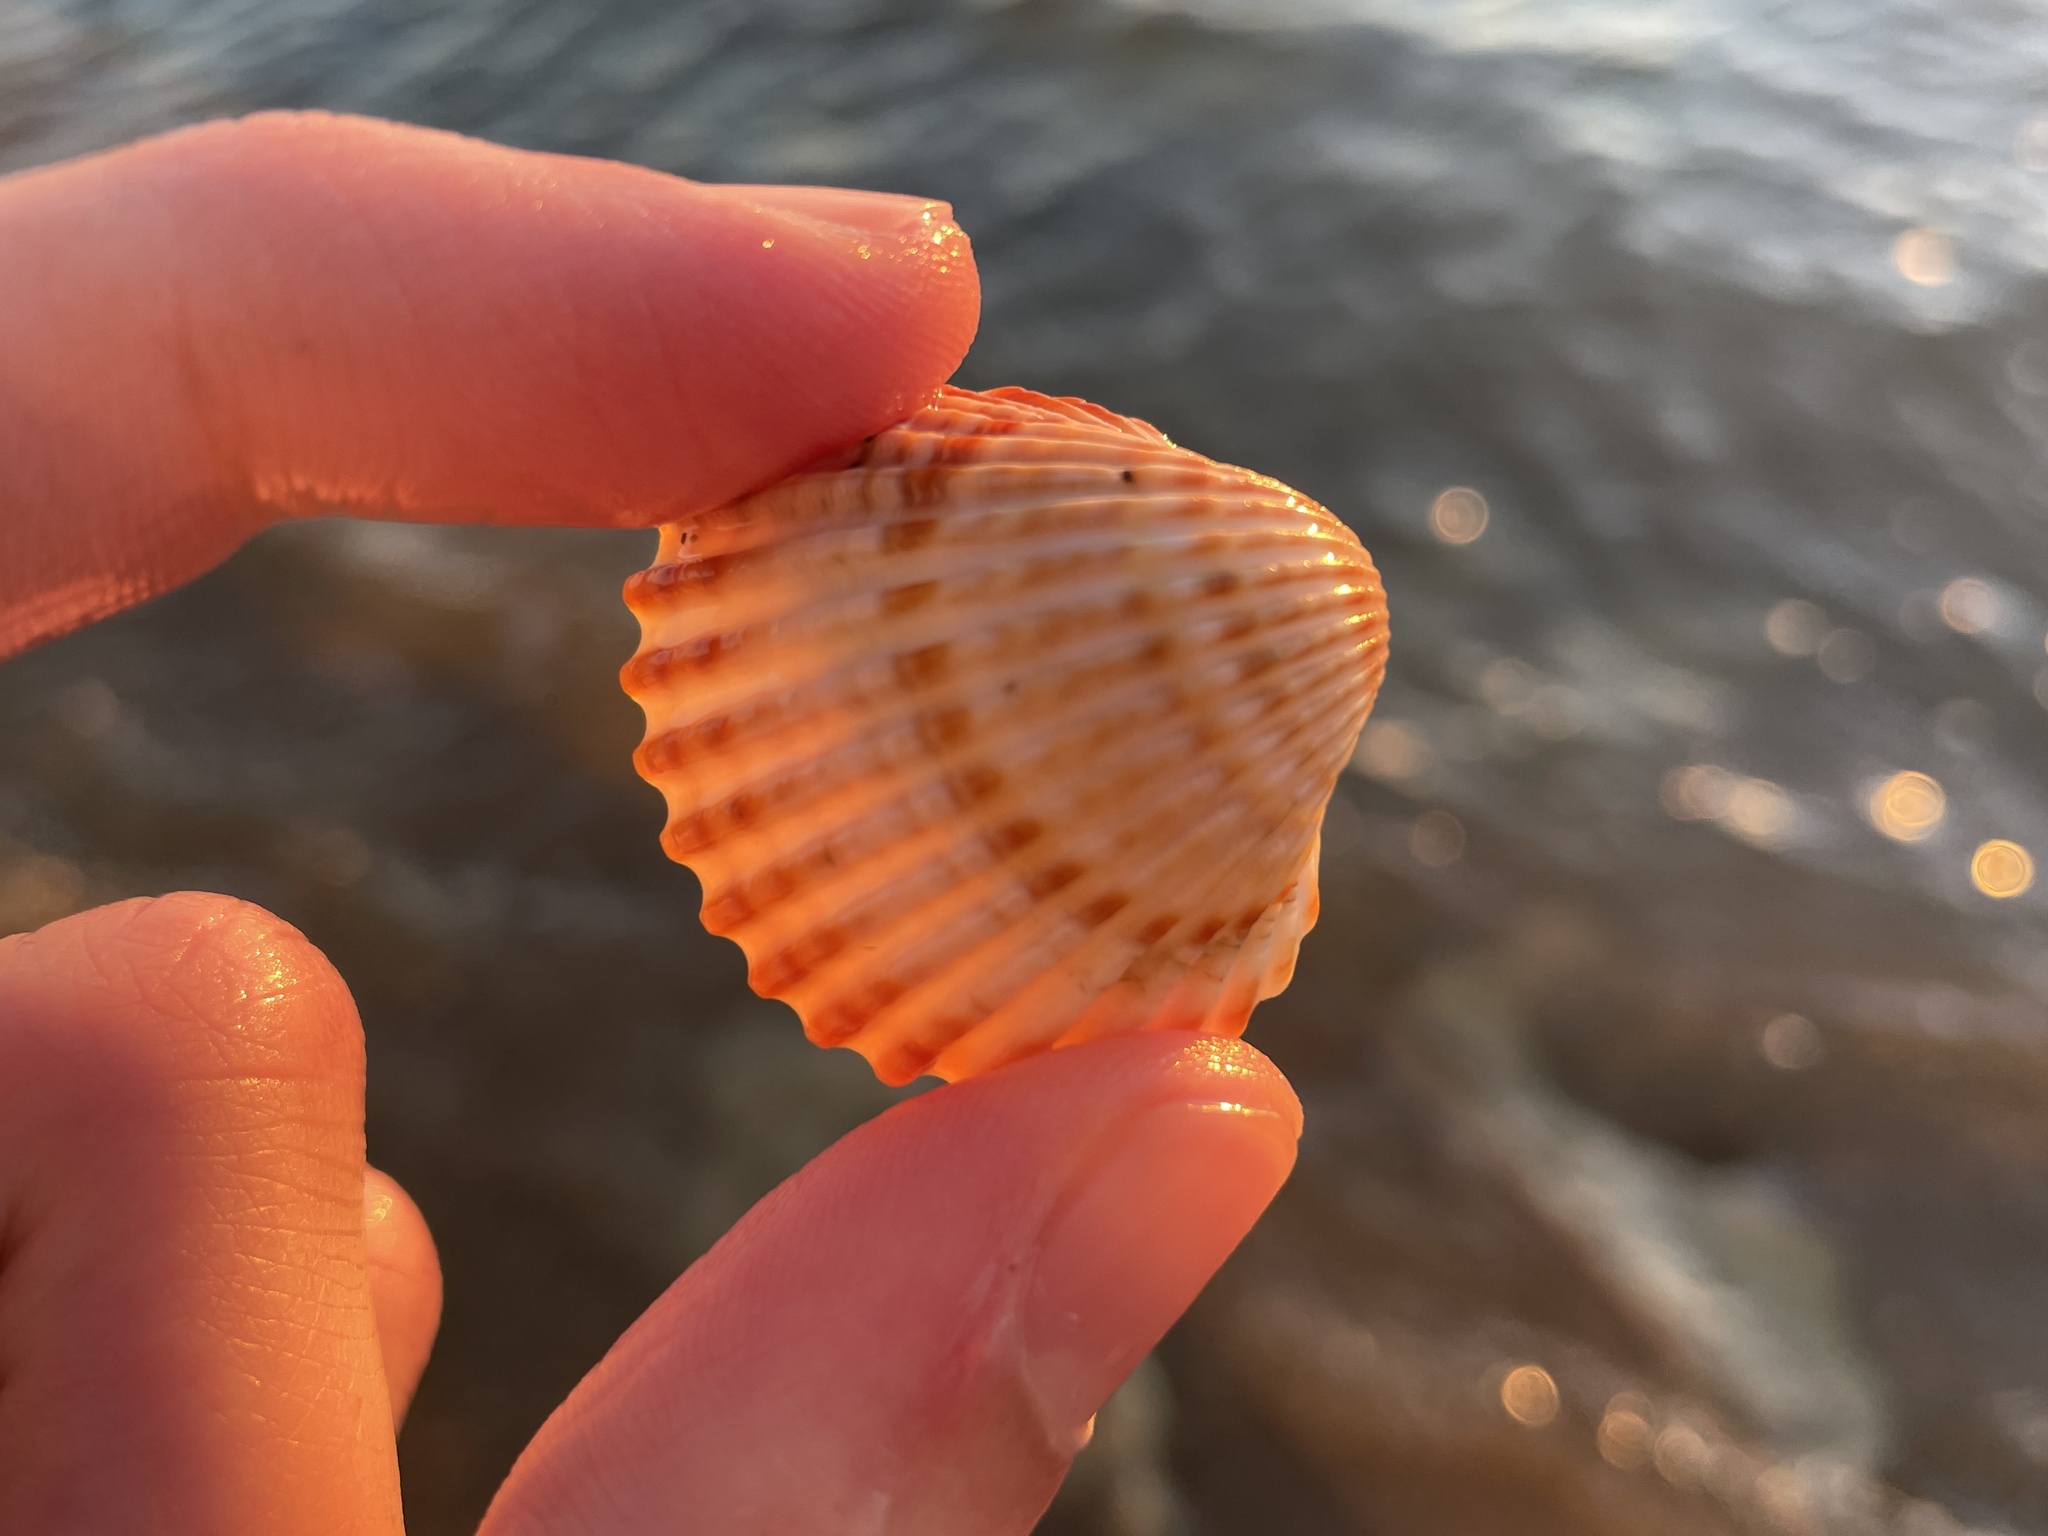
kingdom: Animalia
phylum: Mollusca
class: Bivalvia
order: Cardiida
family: Cardiidae
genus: Acanthocardia
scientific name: Acanthocardia tuberculata
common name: Rough cockle
